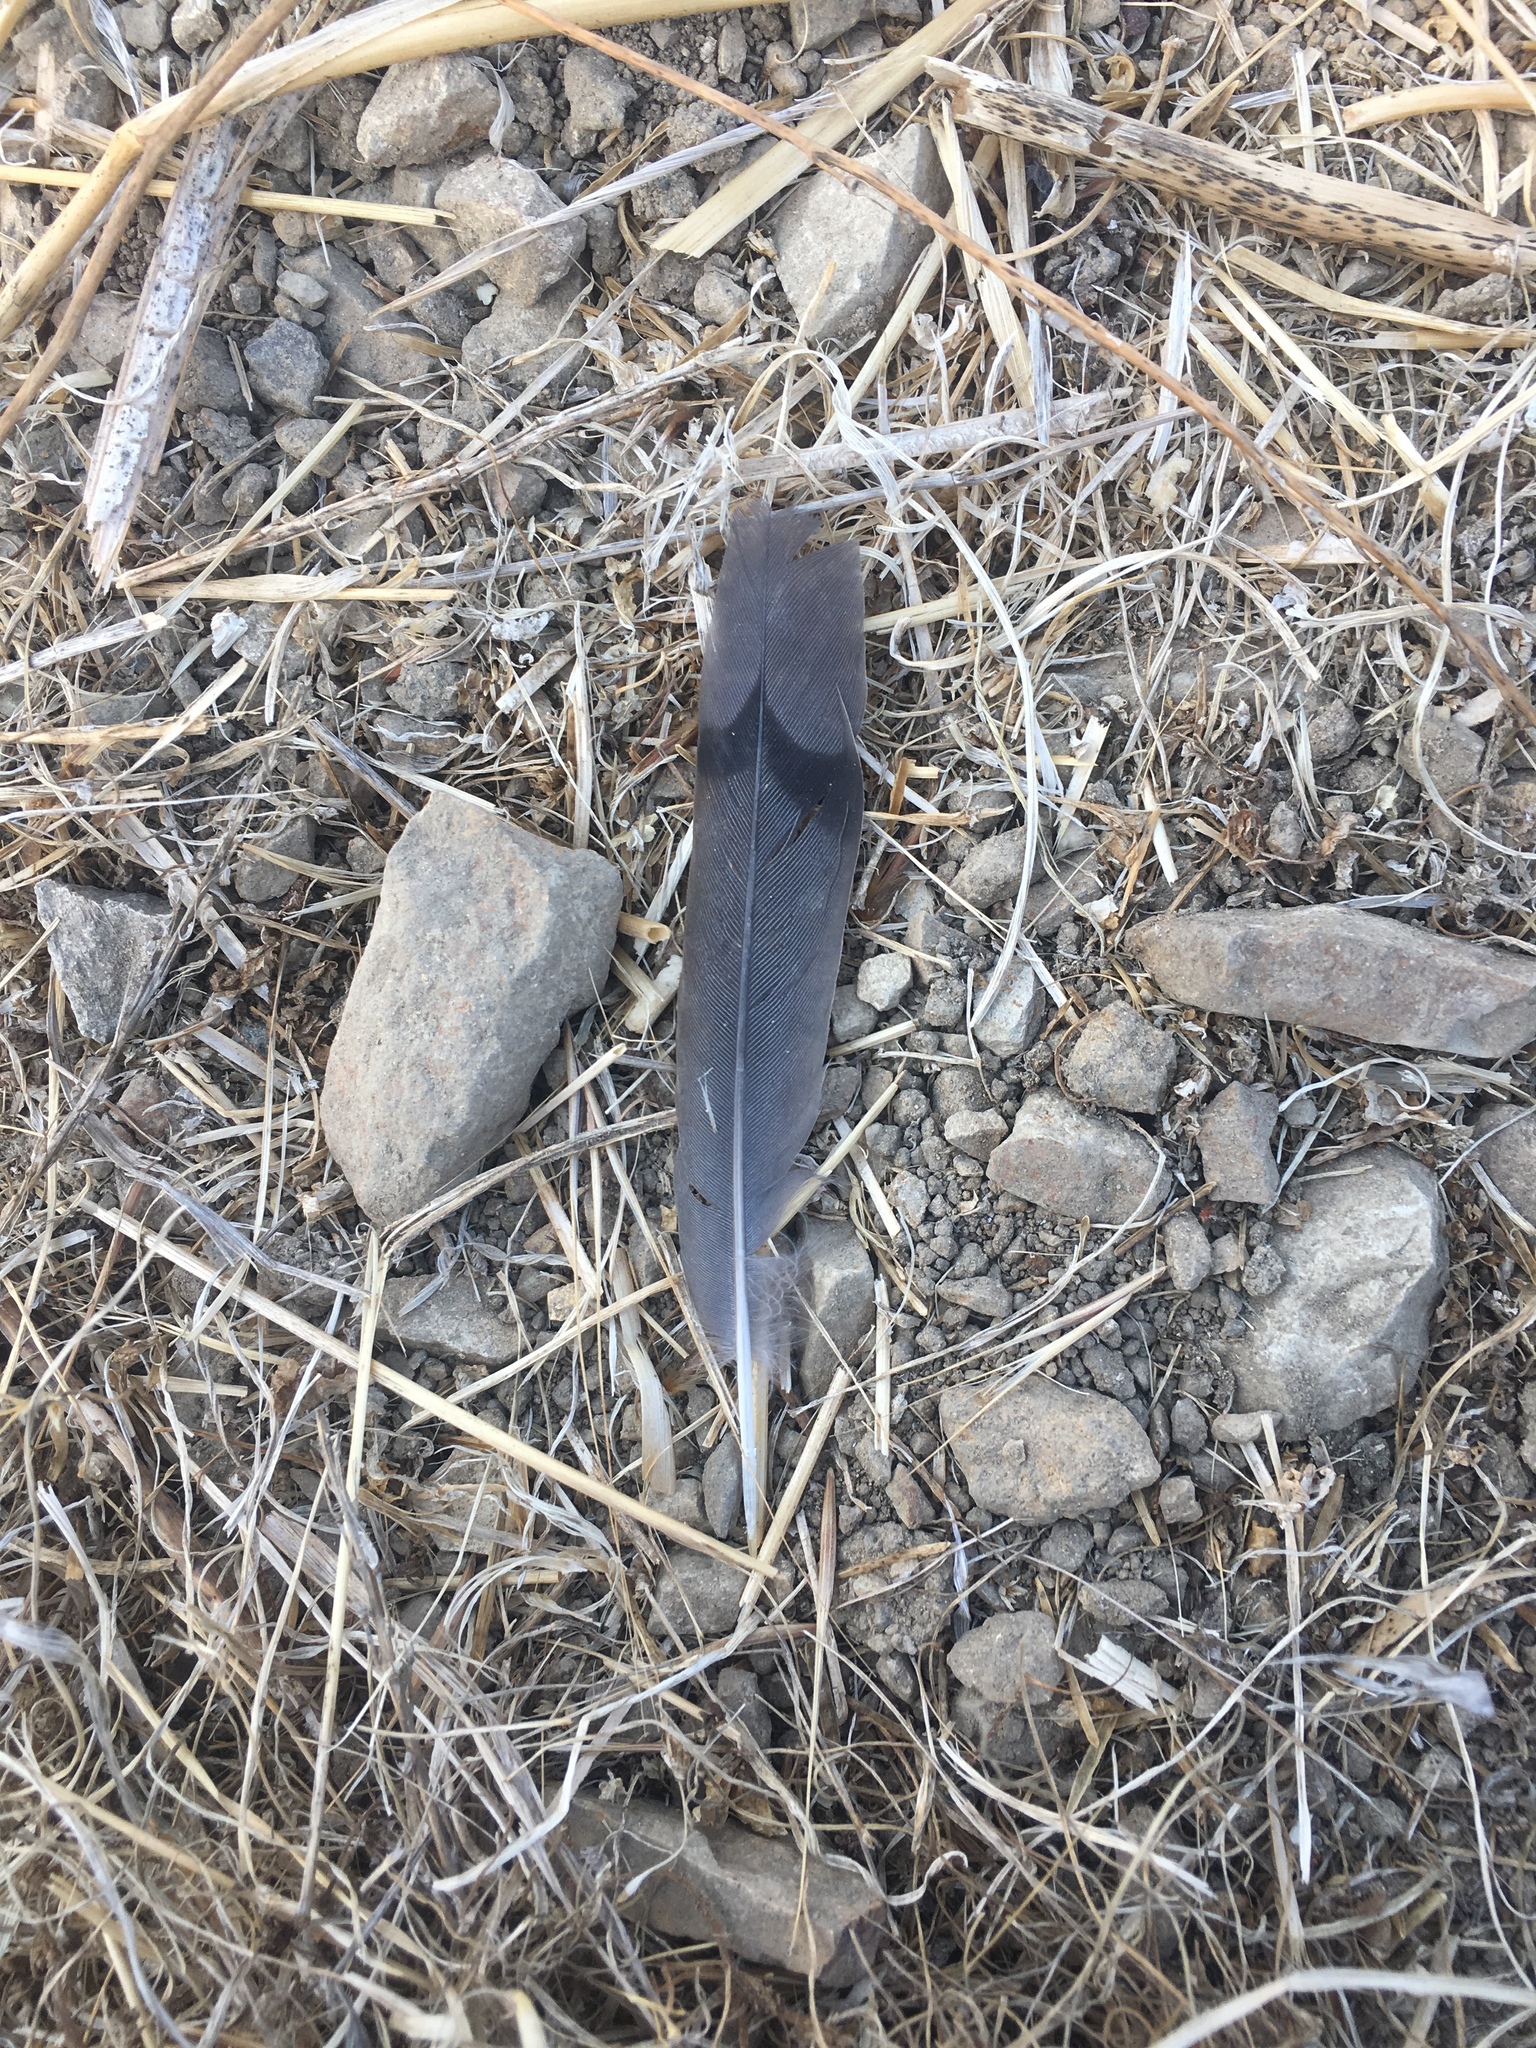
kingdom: Animalia
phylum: Chordata
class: Aves
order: Columbiformes
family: Columbidae
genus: Zenaida
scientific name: Zenaida macroura
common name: Mourning dove
